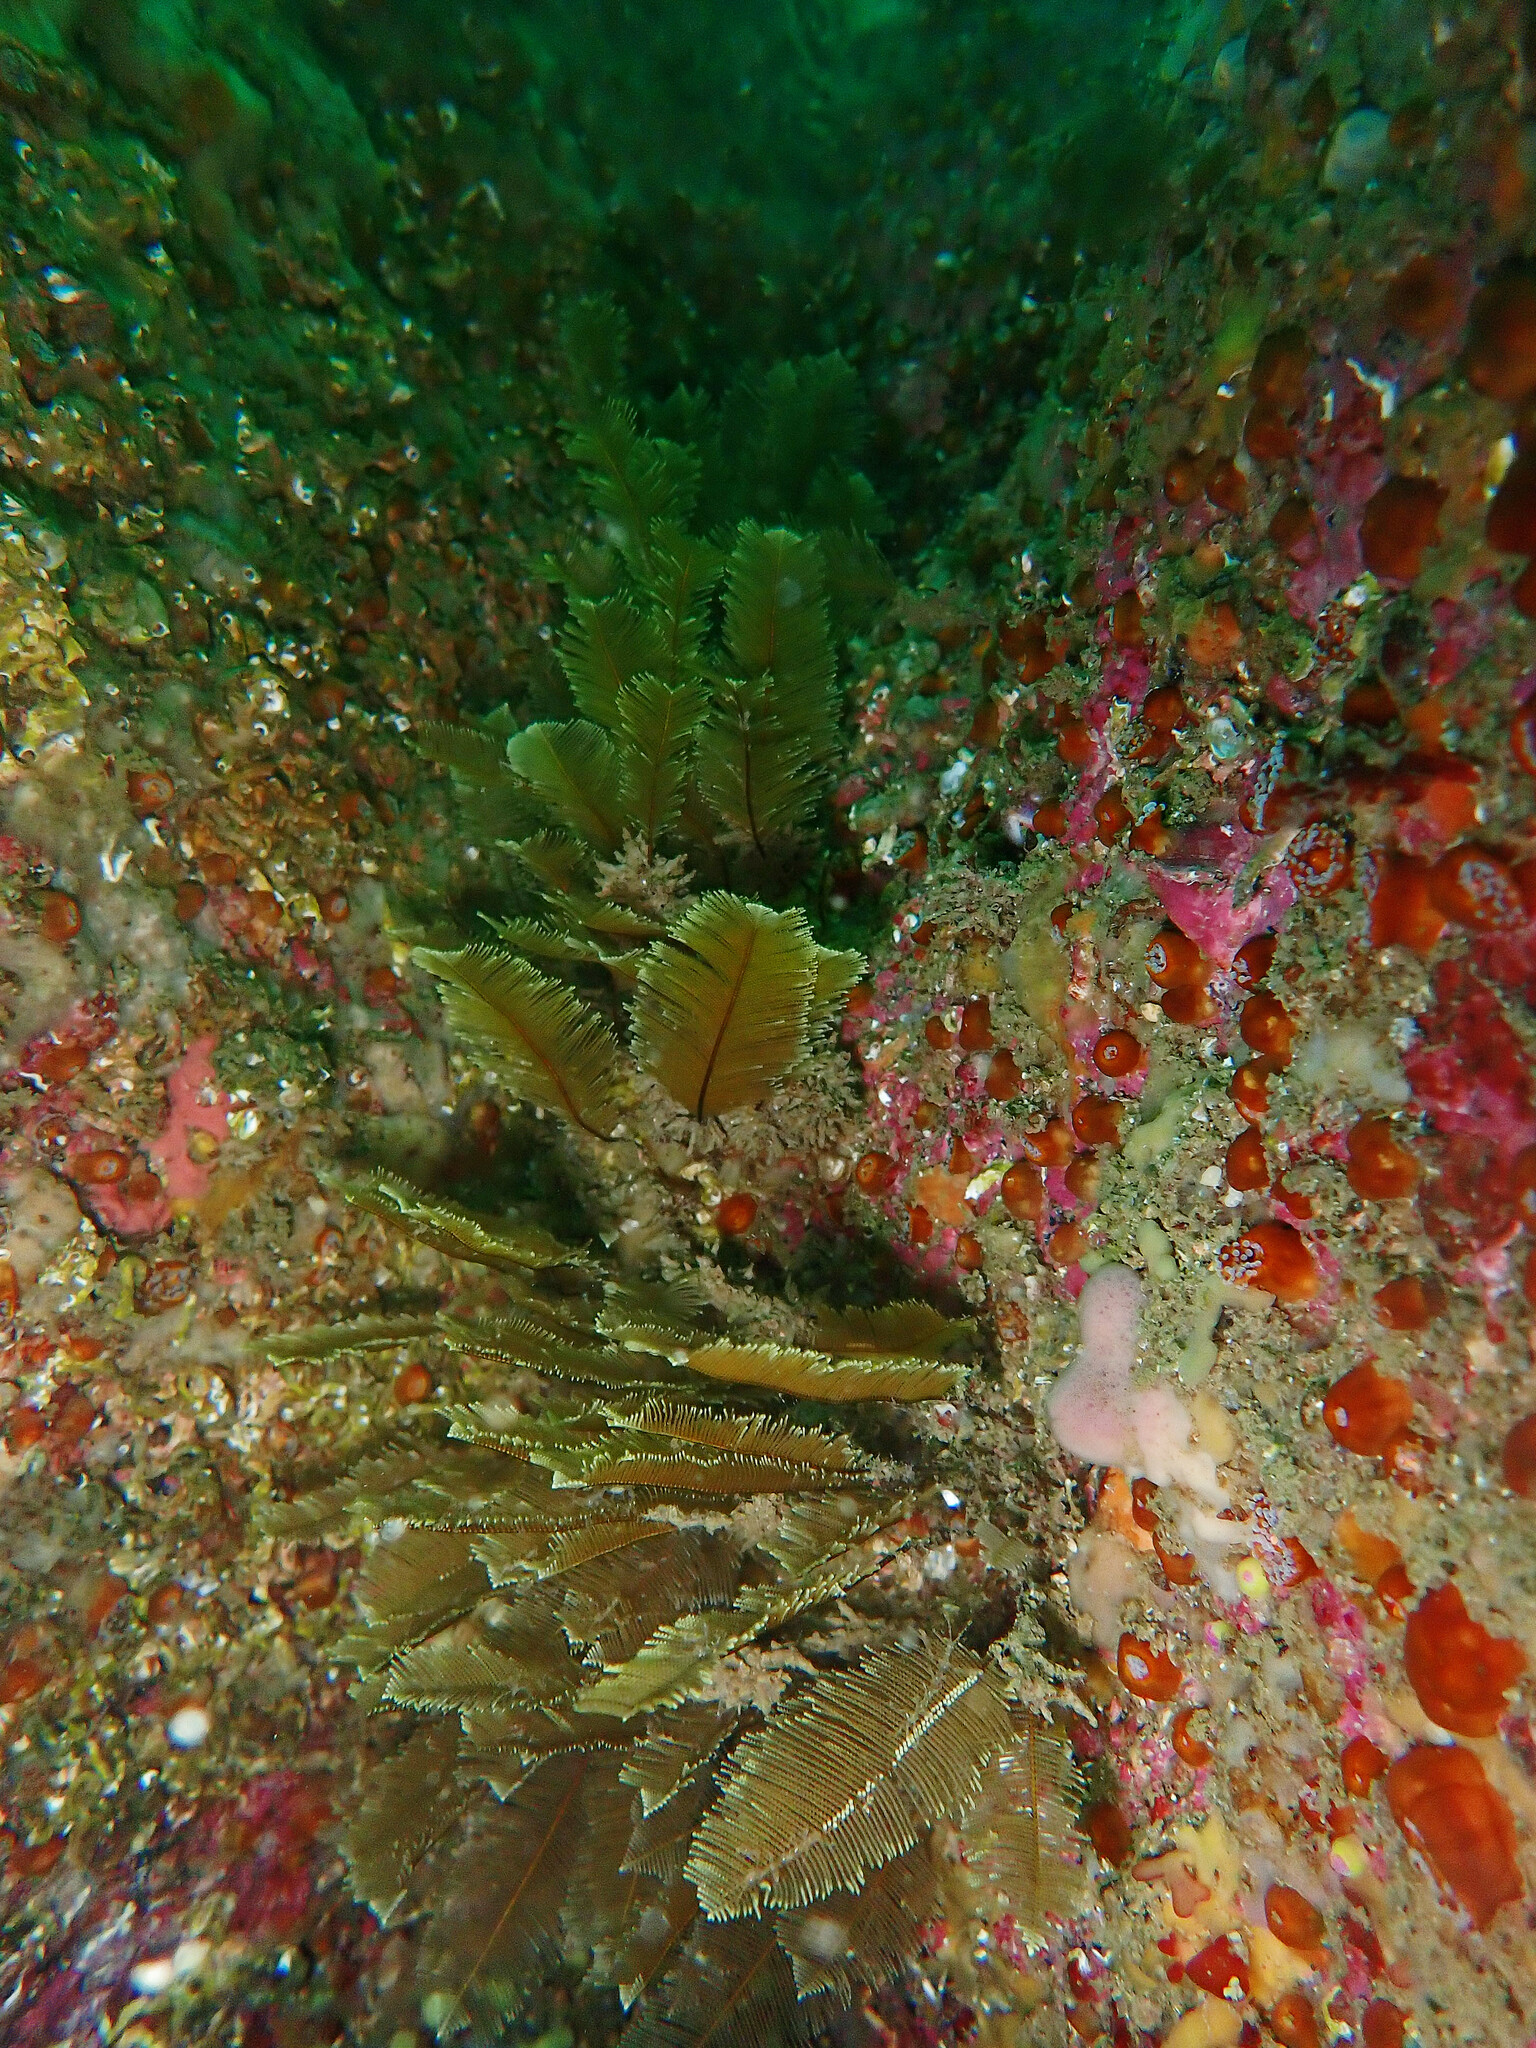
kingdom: Animalia
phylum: Cnidaria
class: Hydrozoa
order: Leptothecata
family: Aglaopheniidae
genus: Gymnangium
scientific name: Gymnangium montagui
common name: Yellow feathers
